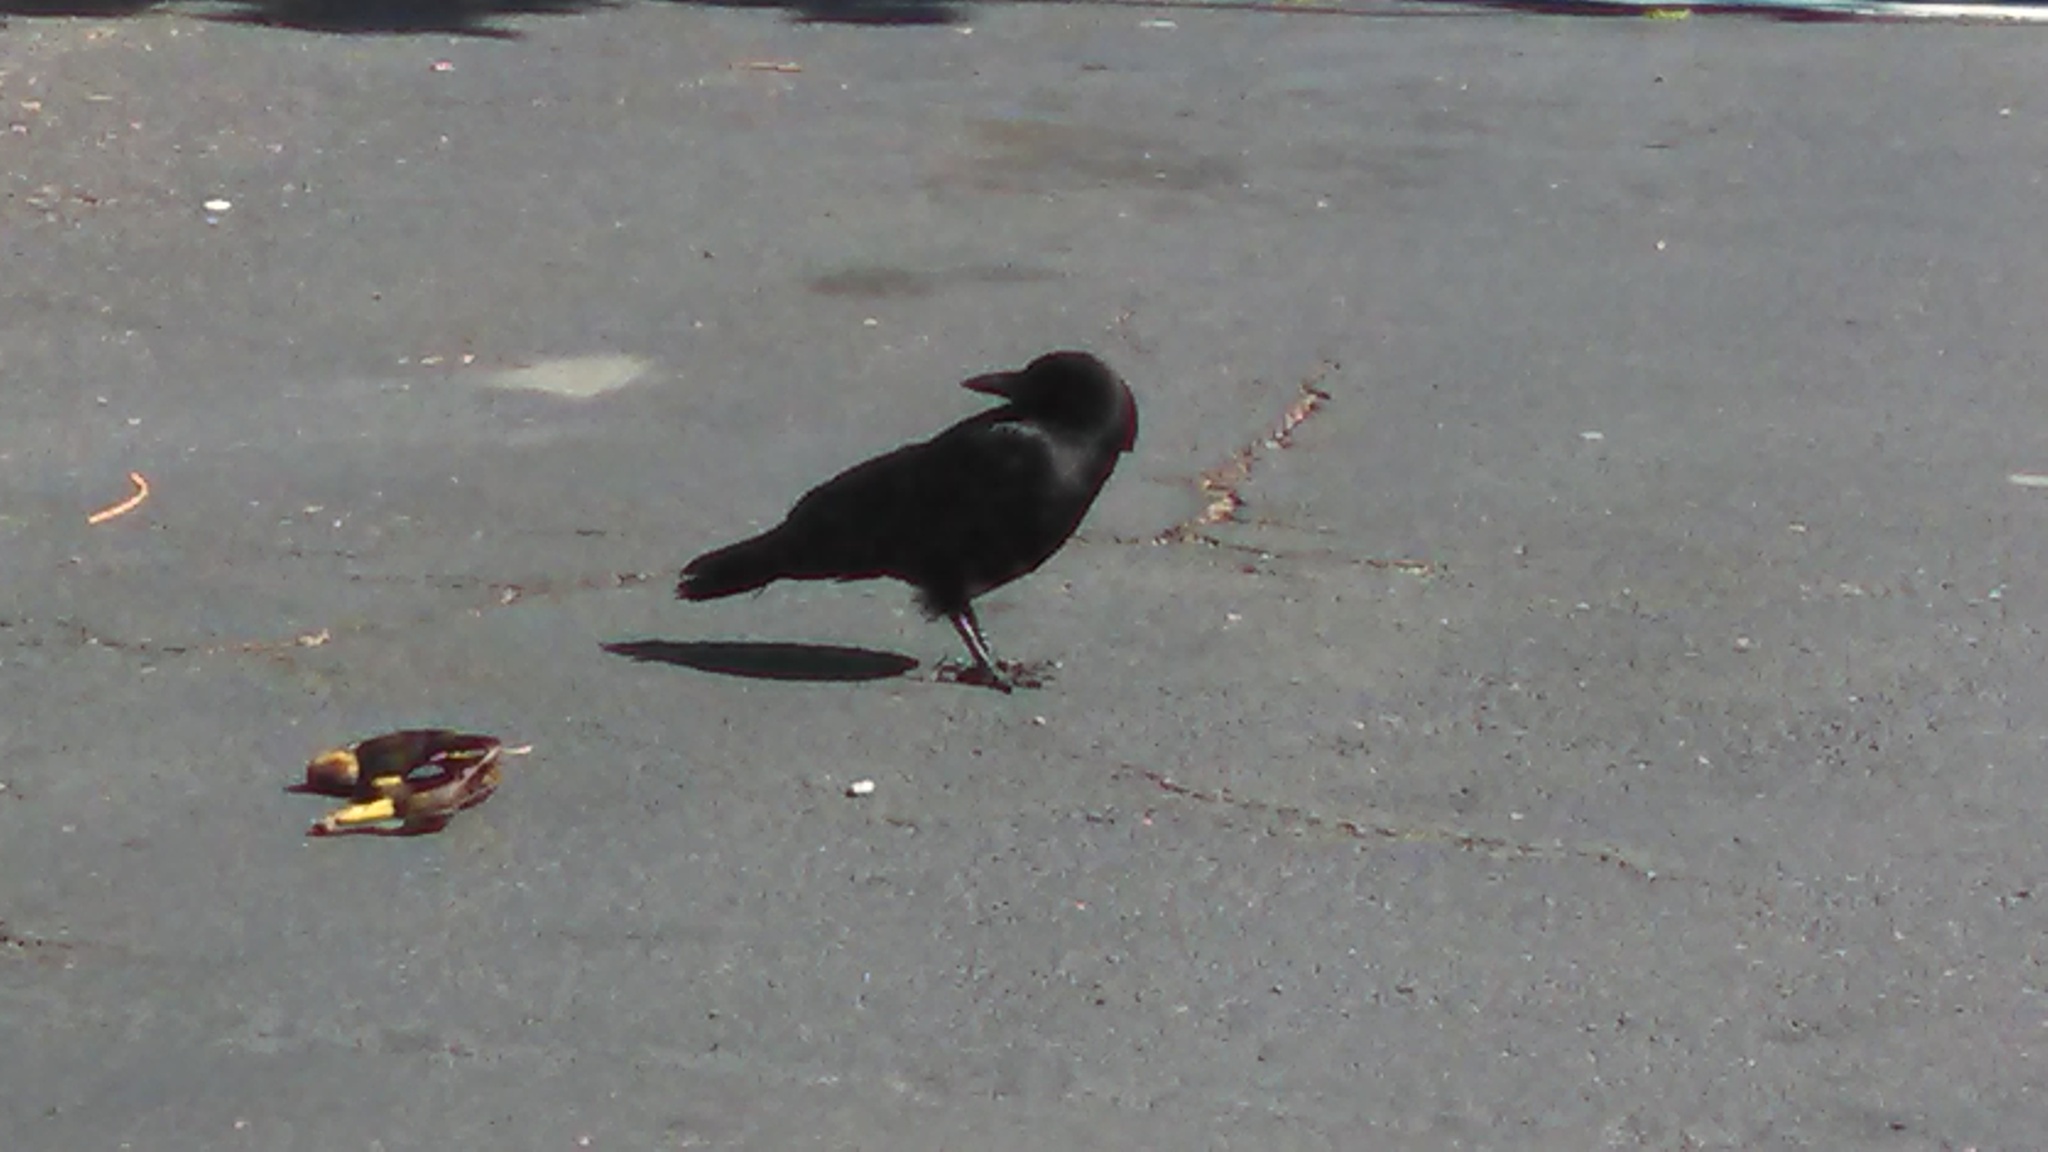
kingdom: Animalia
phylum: Chordata
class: Aves
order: Passeriformes
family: Corvidae
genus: Corvus
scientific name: Corvus brachyrhynchos
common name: American crow
